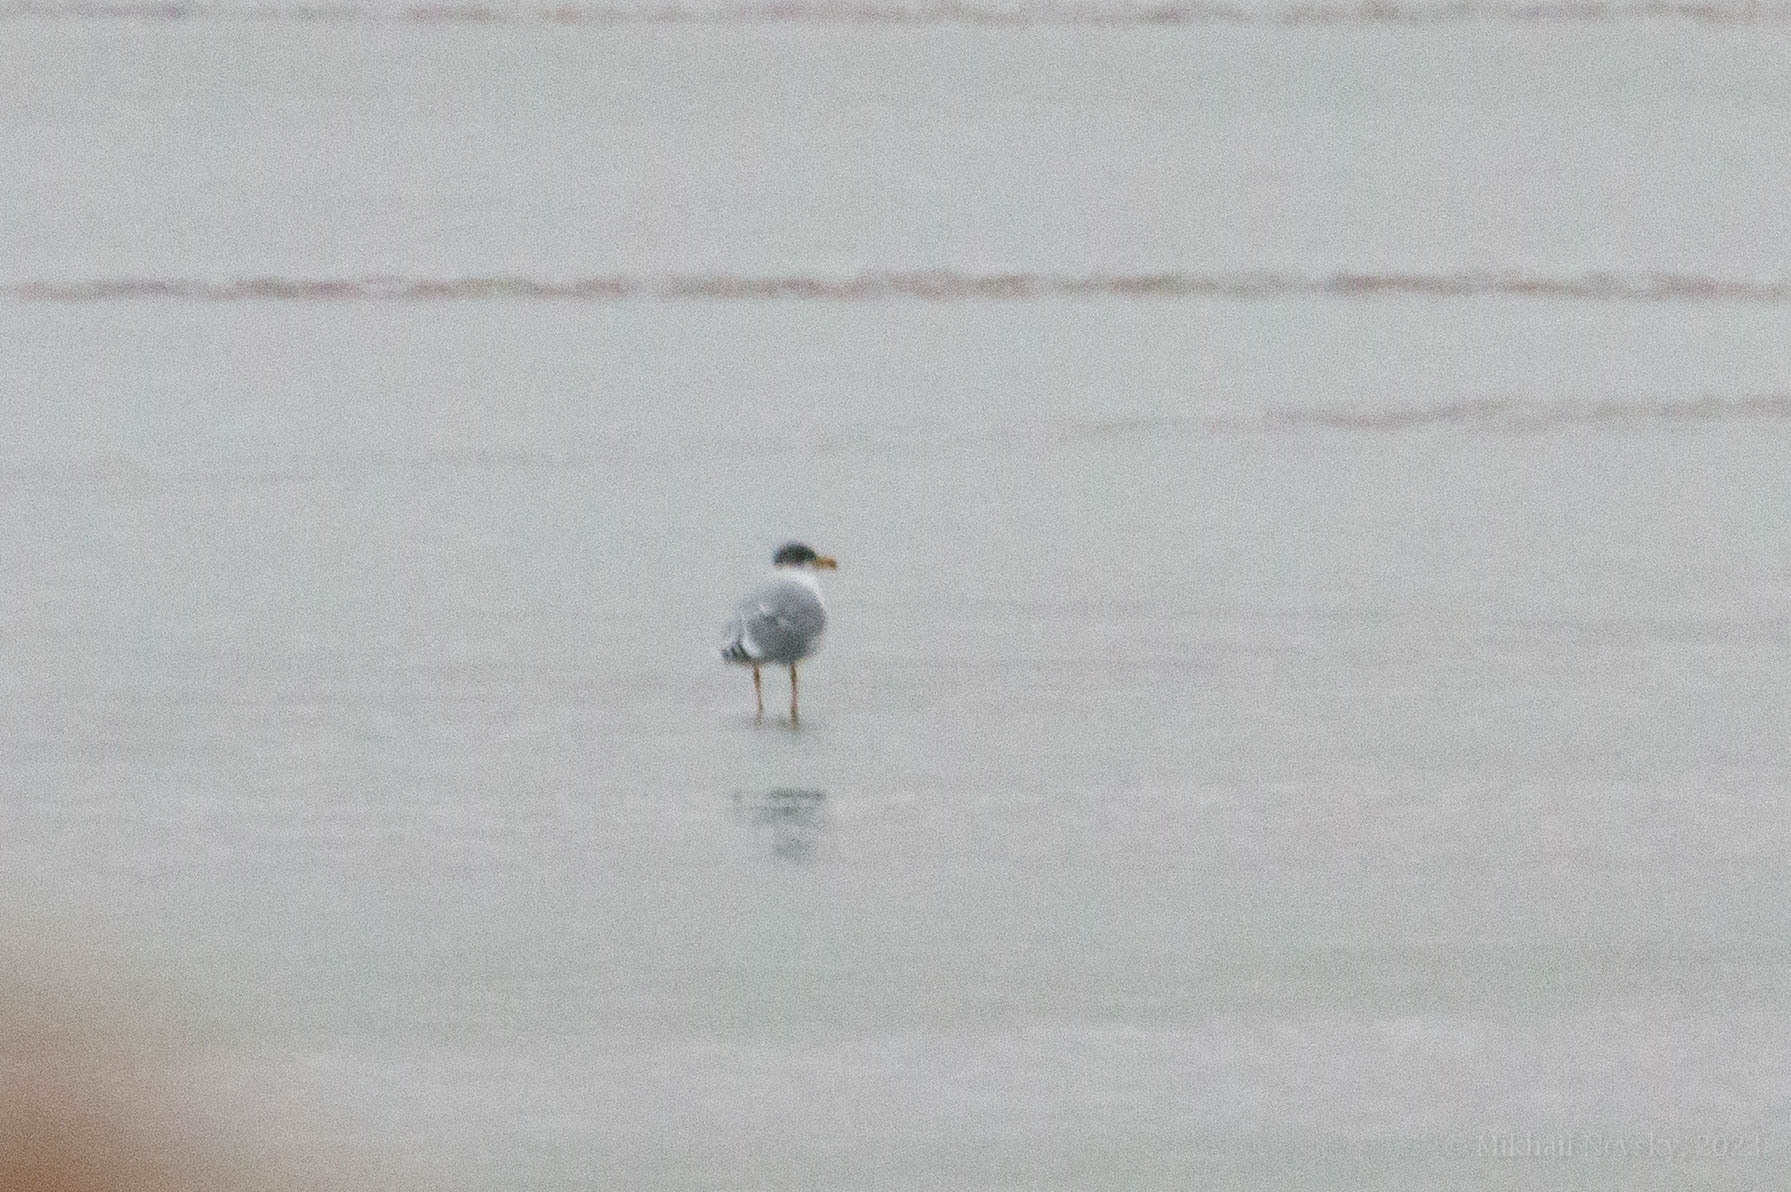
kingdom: Animalia
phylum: Chordata
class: Aves
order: Charadriiformes
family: Laridae
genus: Ichthyaetus
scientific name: Ichthyaetus ichthyaetus
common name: Pallas's gull
